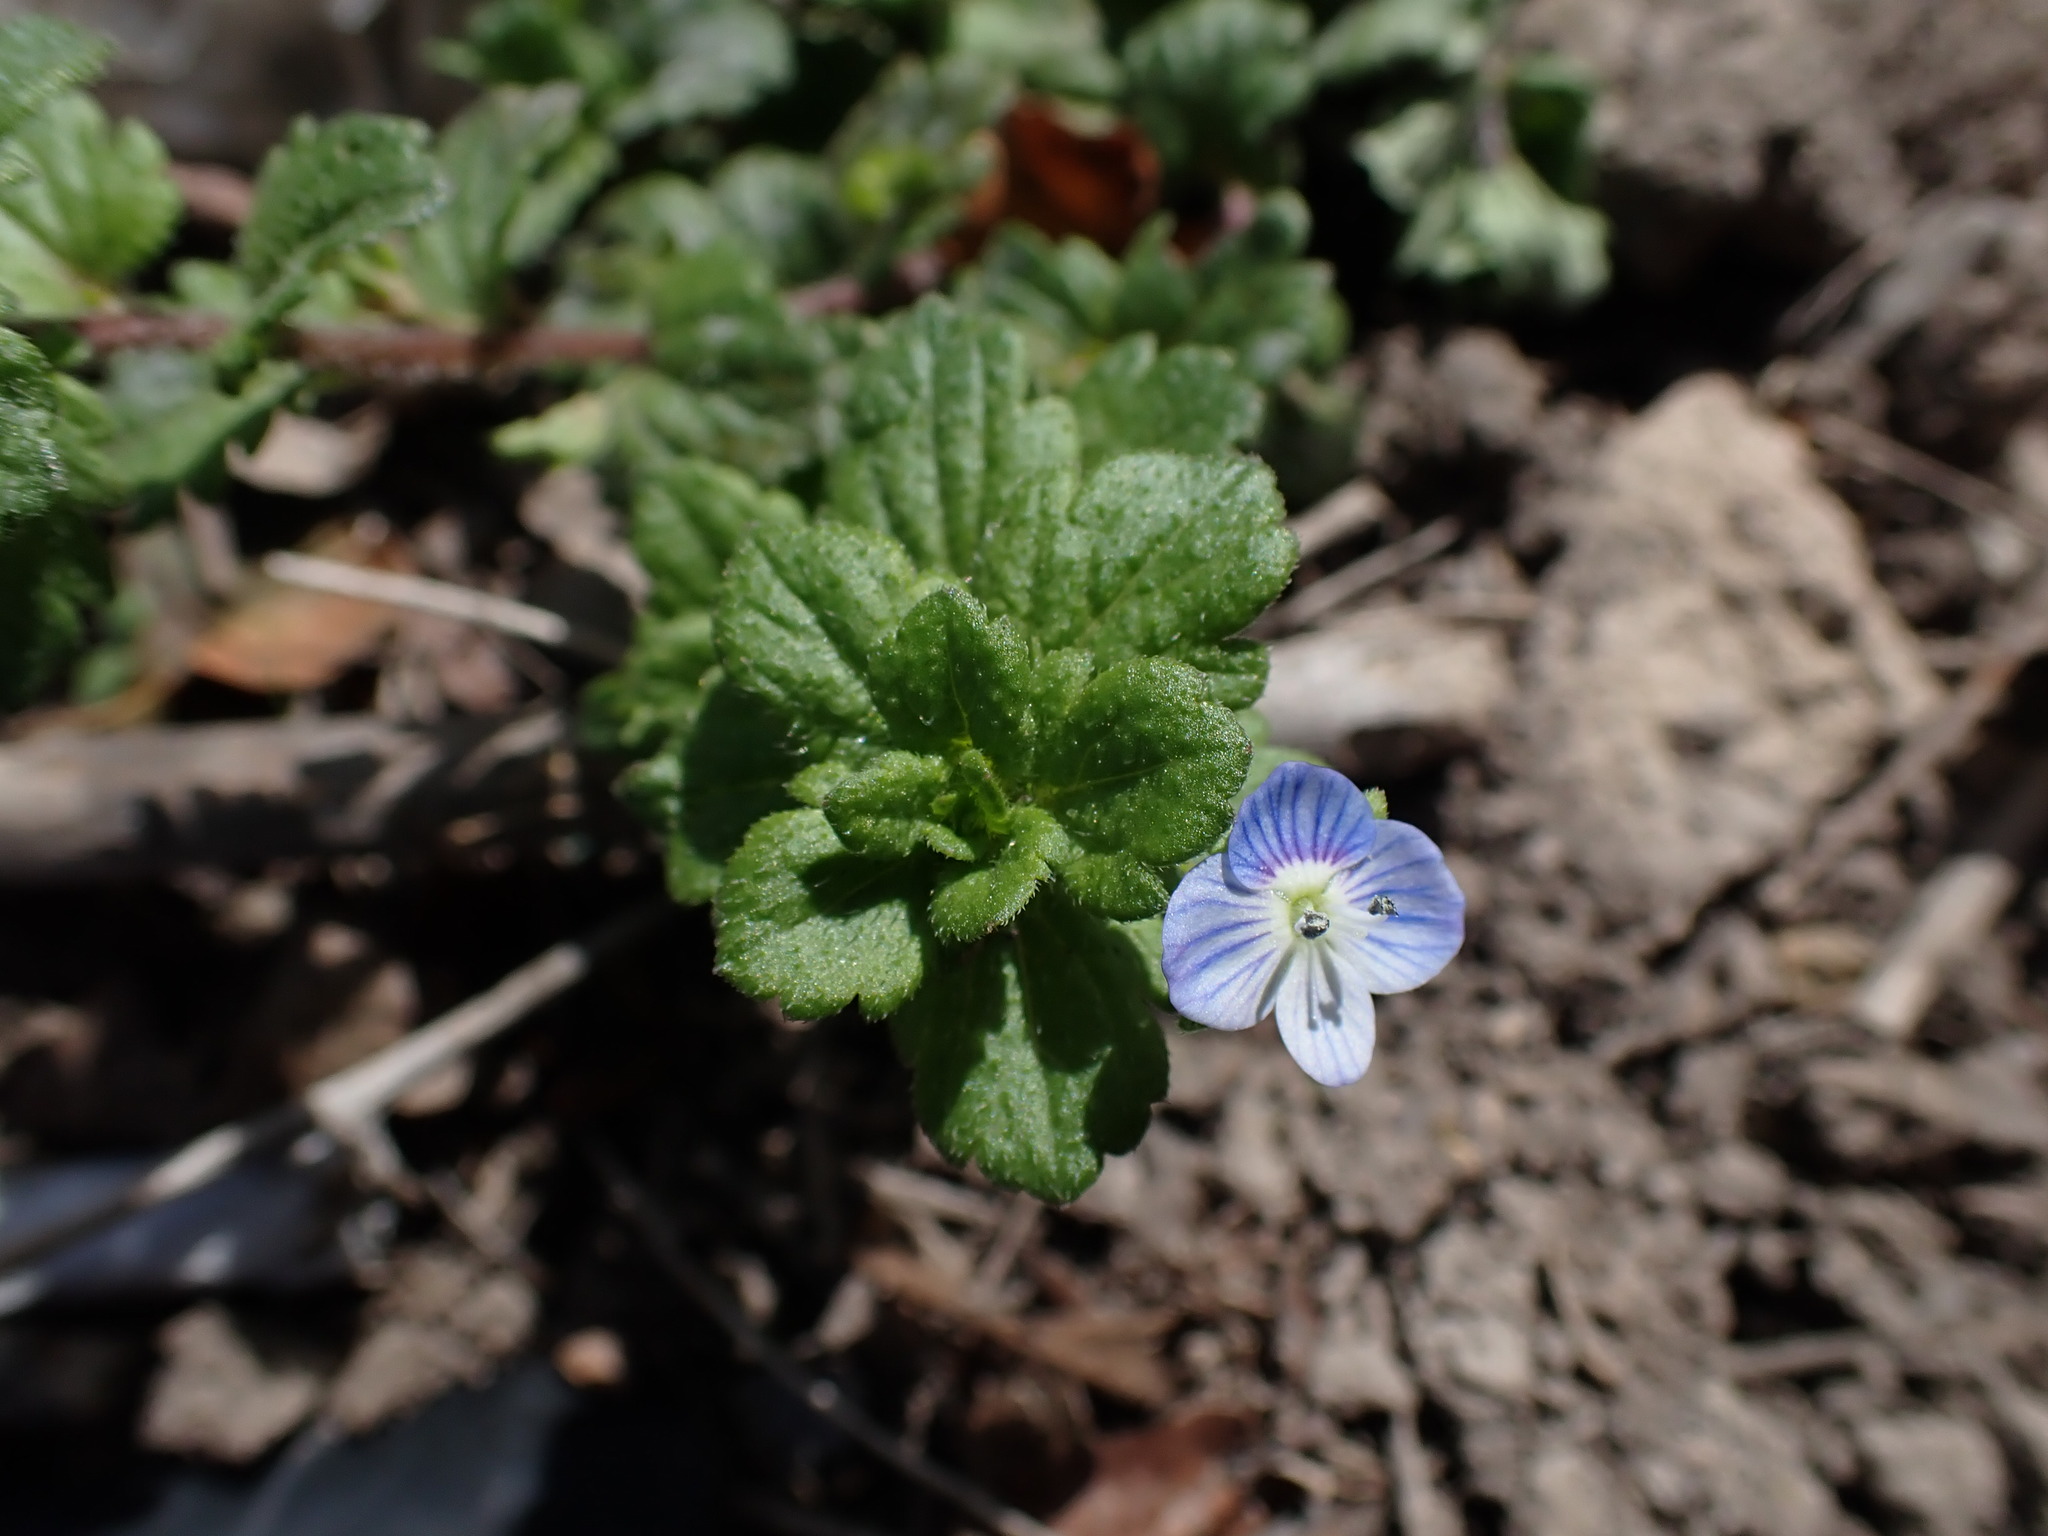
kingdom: Plantae
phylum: Tracheophyta
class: Magnoliopsida
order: Lamiales
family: Plantaginaceae
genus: Veronica
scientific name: Veronica persica
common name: Common field-speedwell
